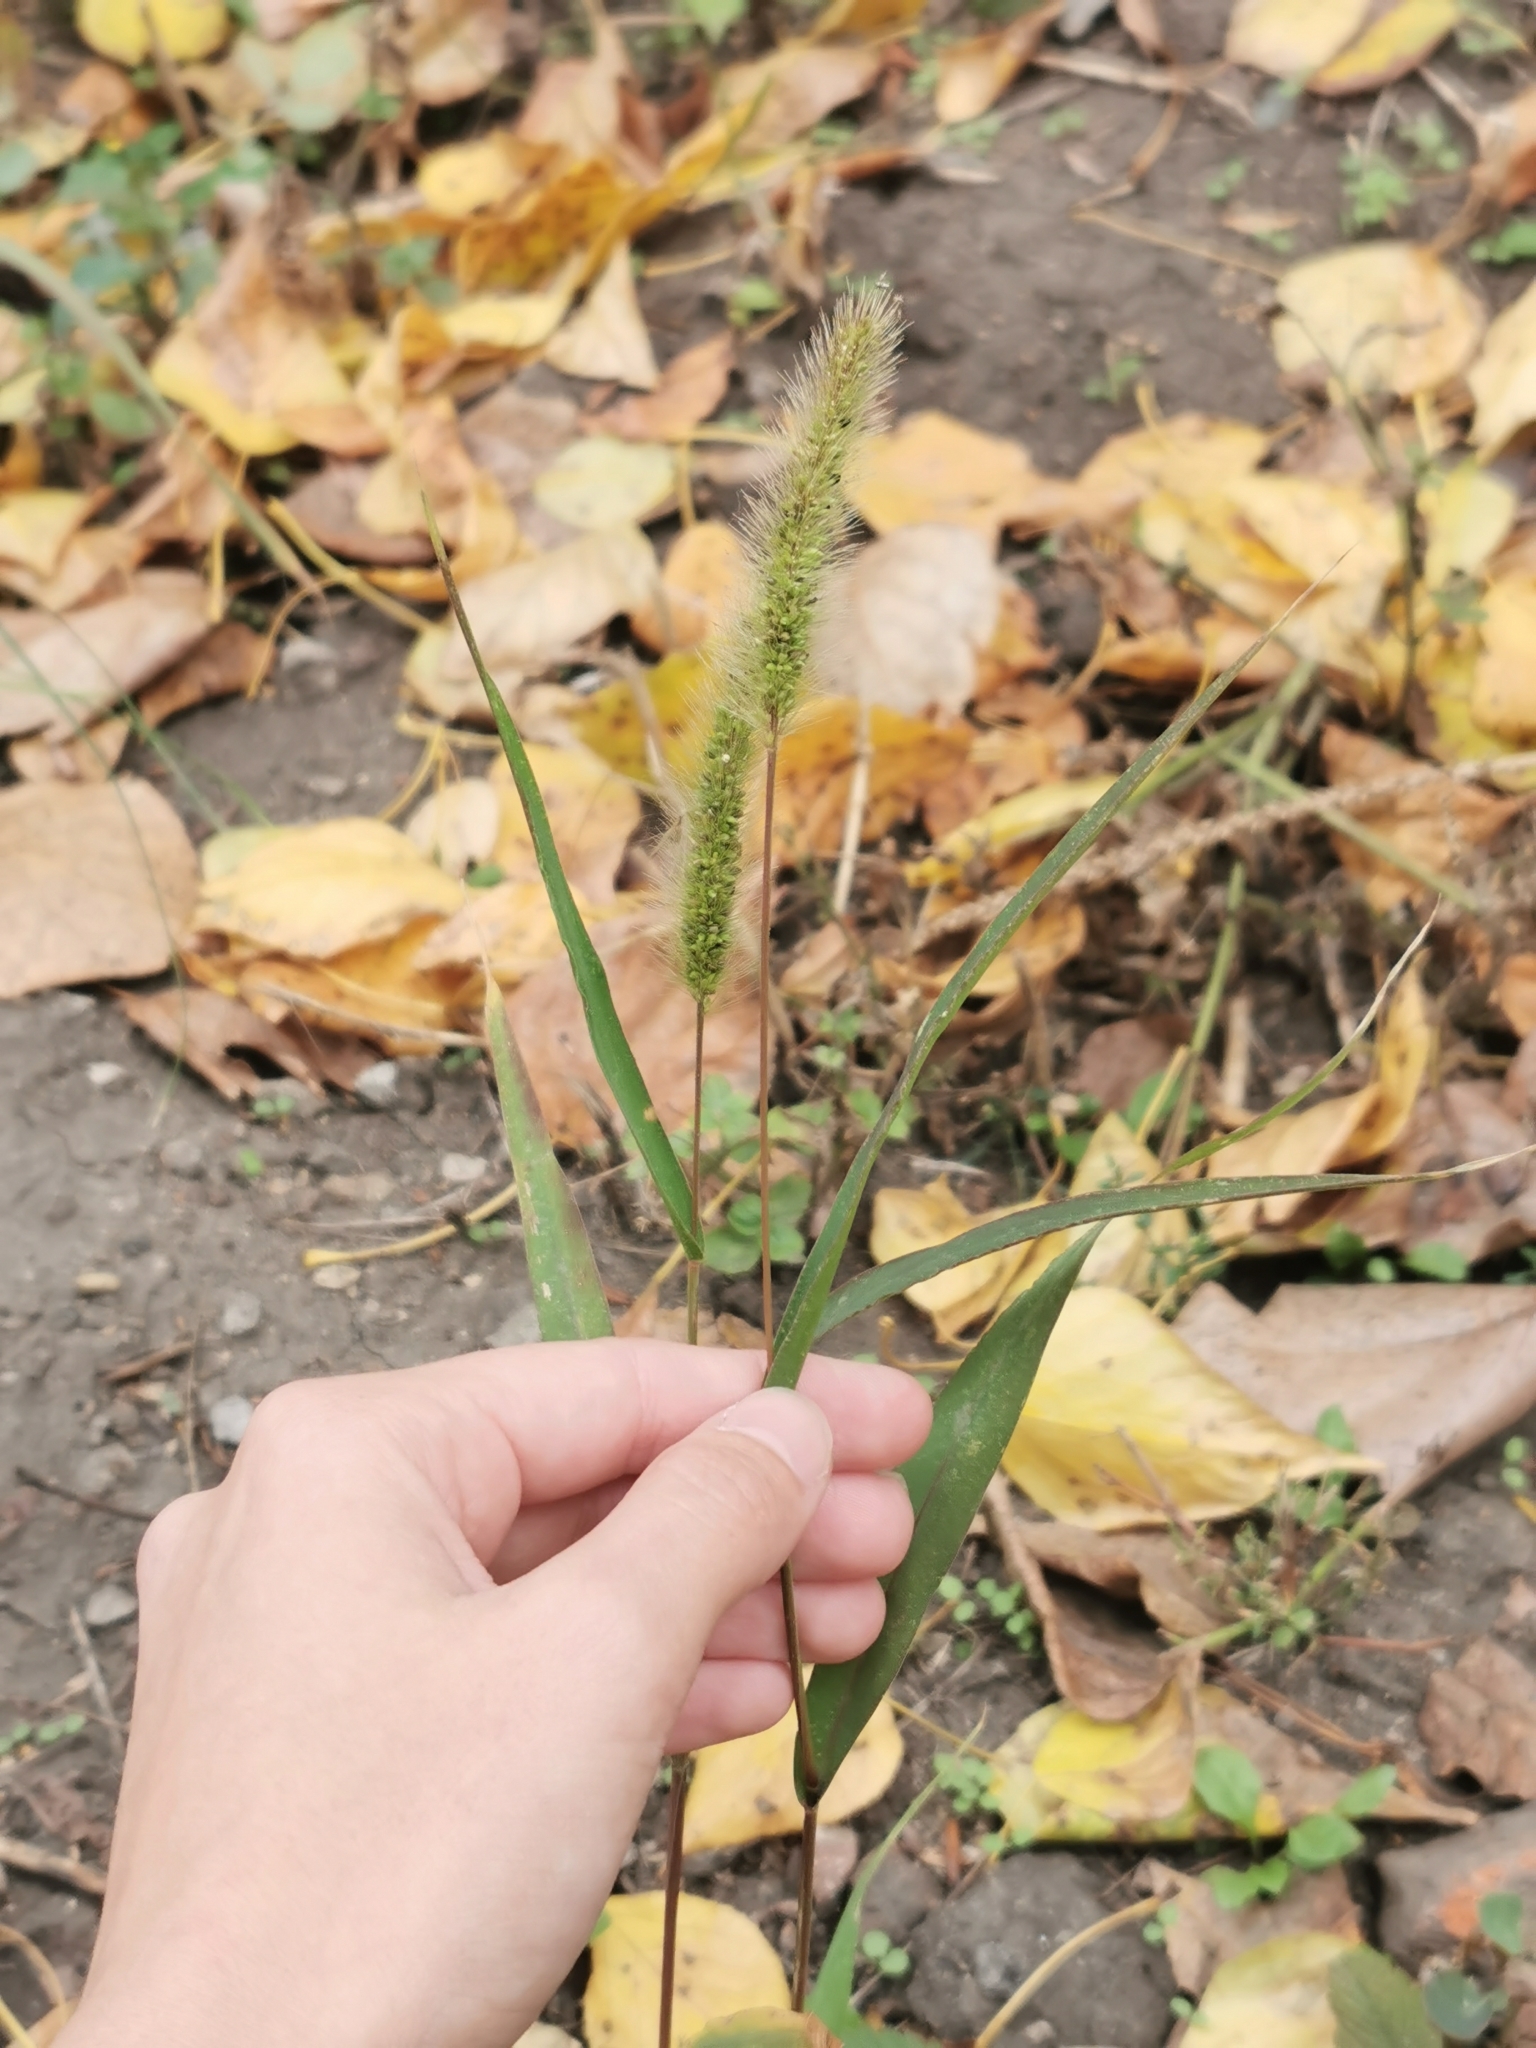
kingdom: Plantae
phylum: Tracheophyta
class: Liliopsida
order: Poales
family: Poaceae
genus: Setaria
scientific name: Setaria viridis
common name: Green bristlegrass
